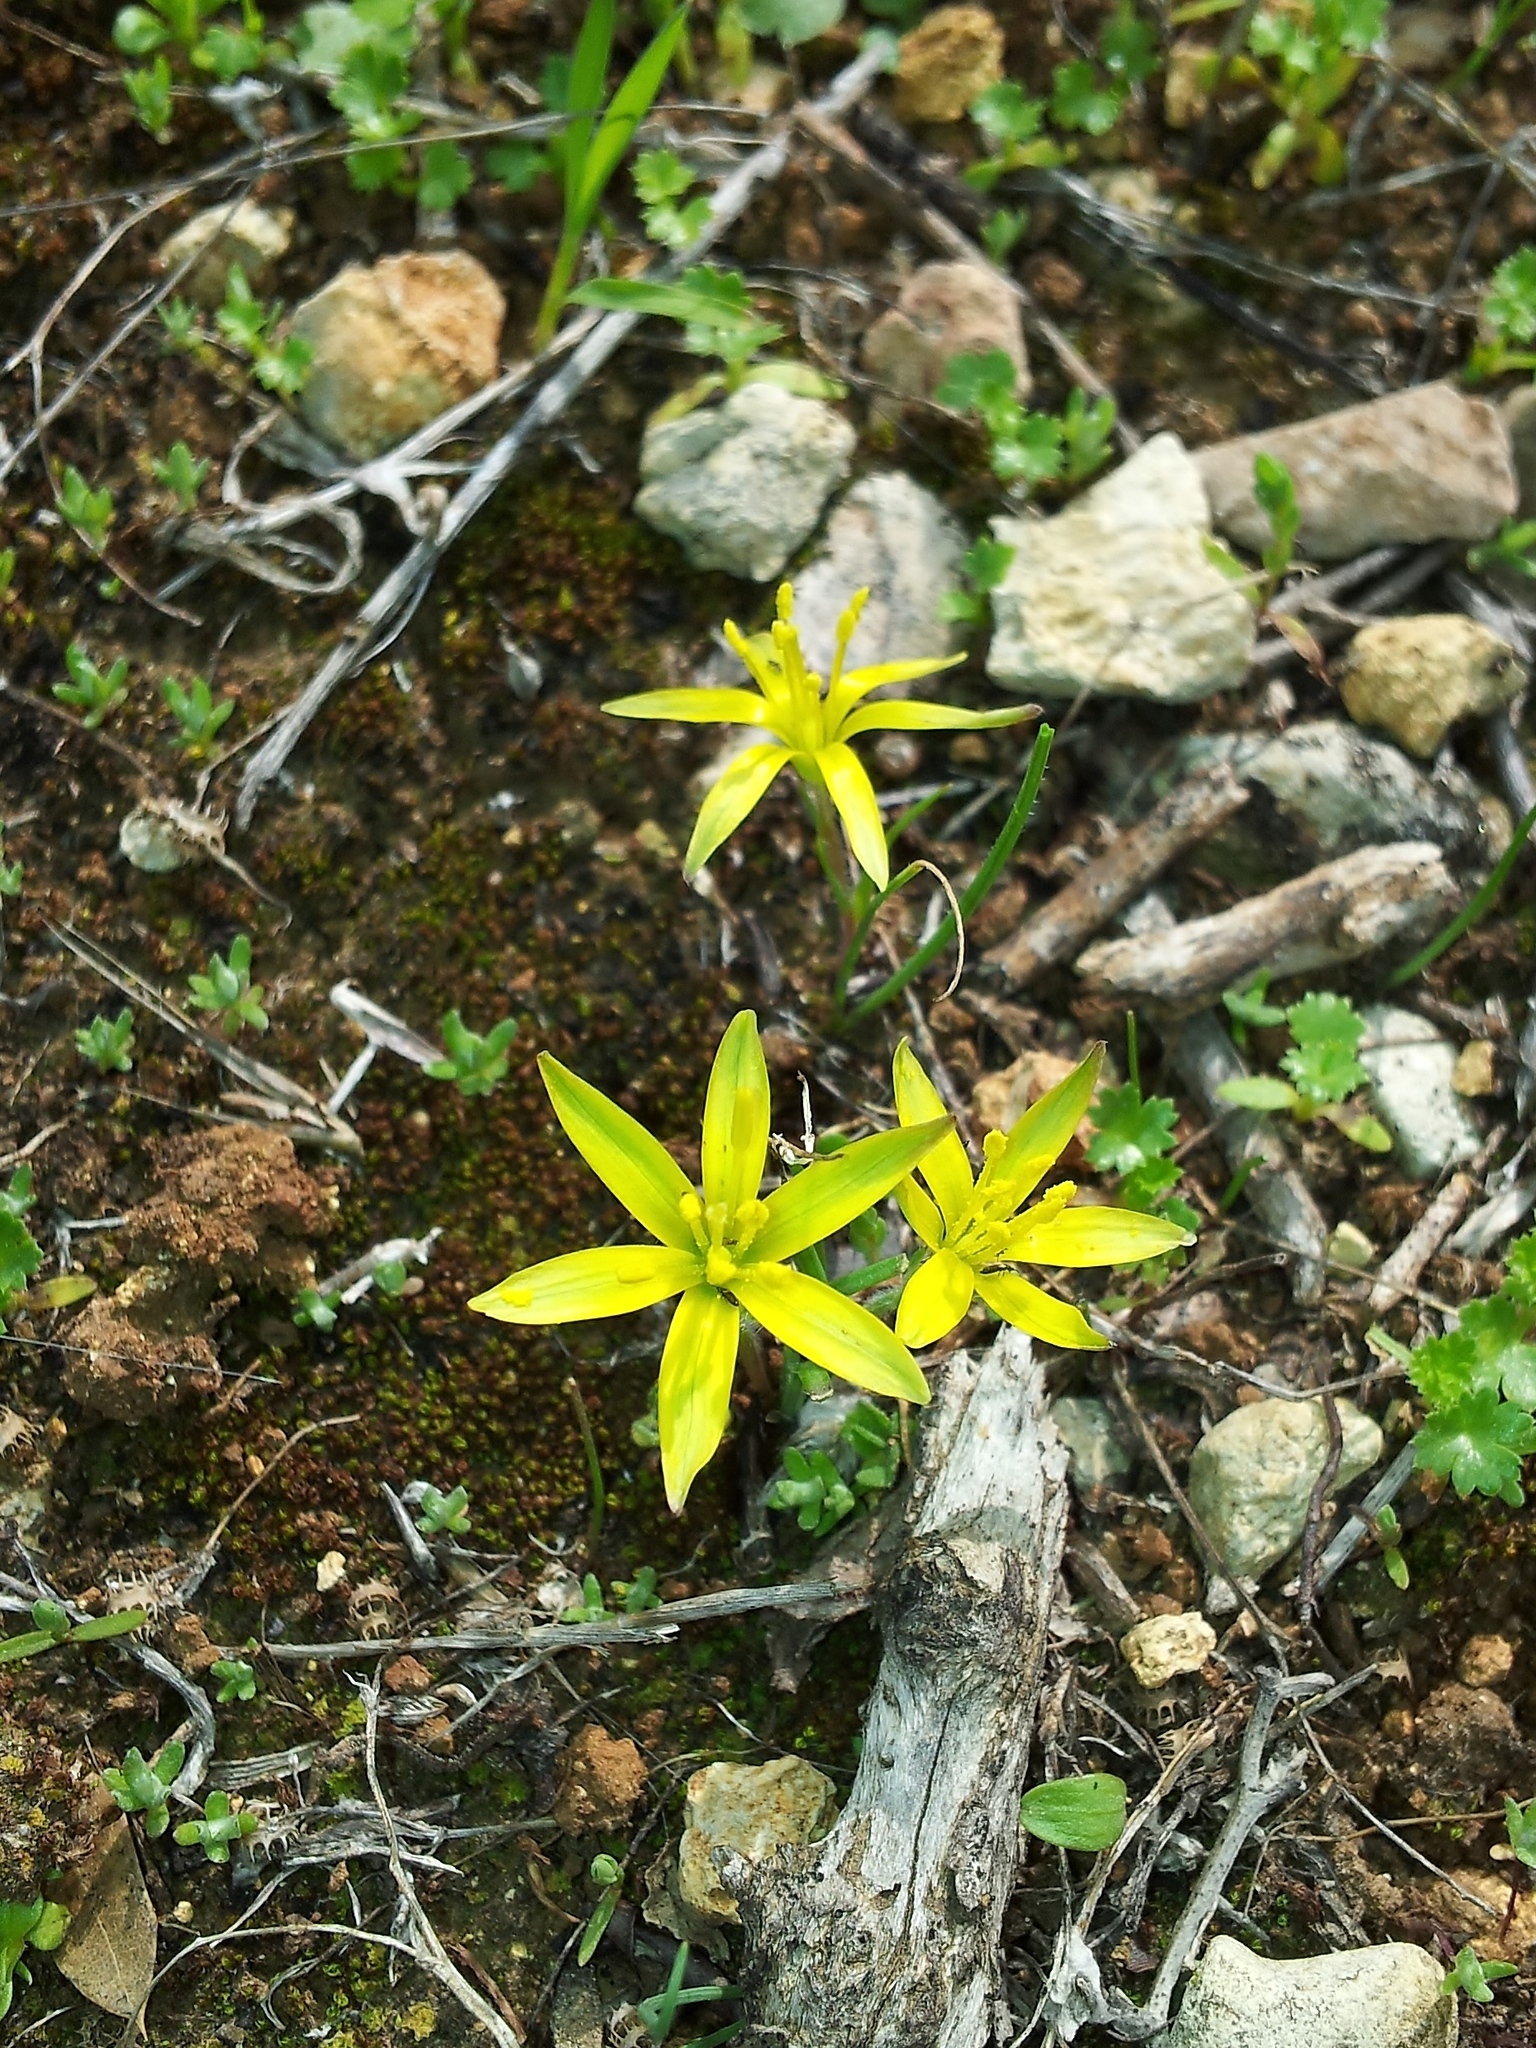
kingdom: Plantae
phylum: Tracheophyta
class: Liliopsida
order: Liliales
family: Liliaceae
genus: Gagea
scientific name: Gagea chlorantha
